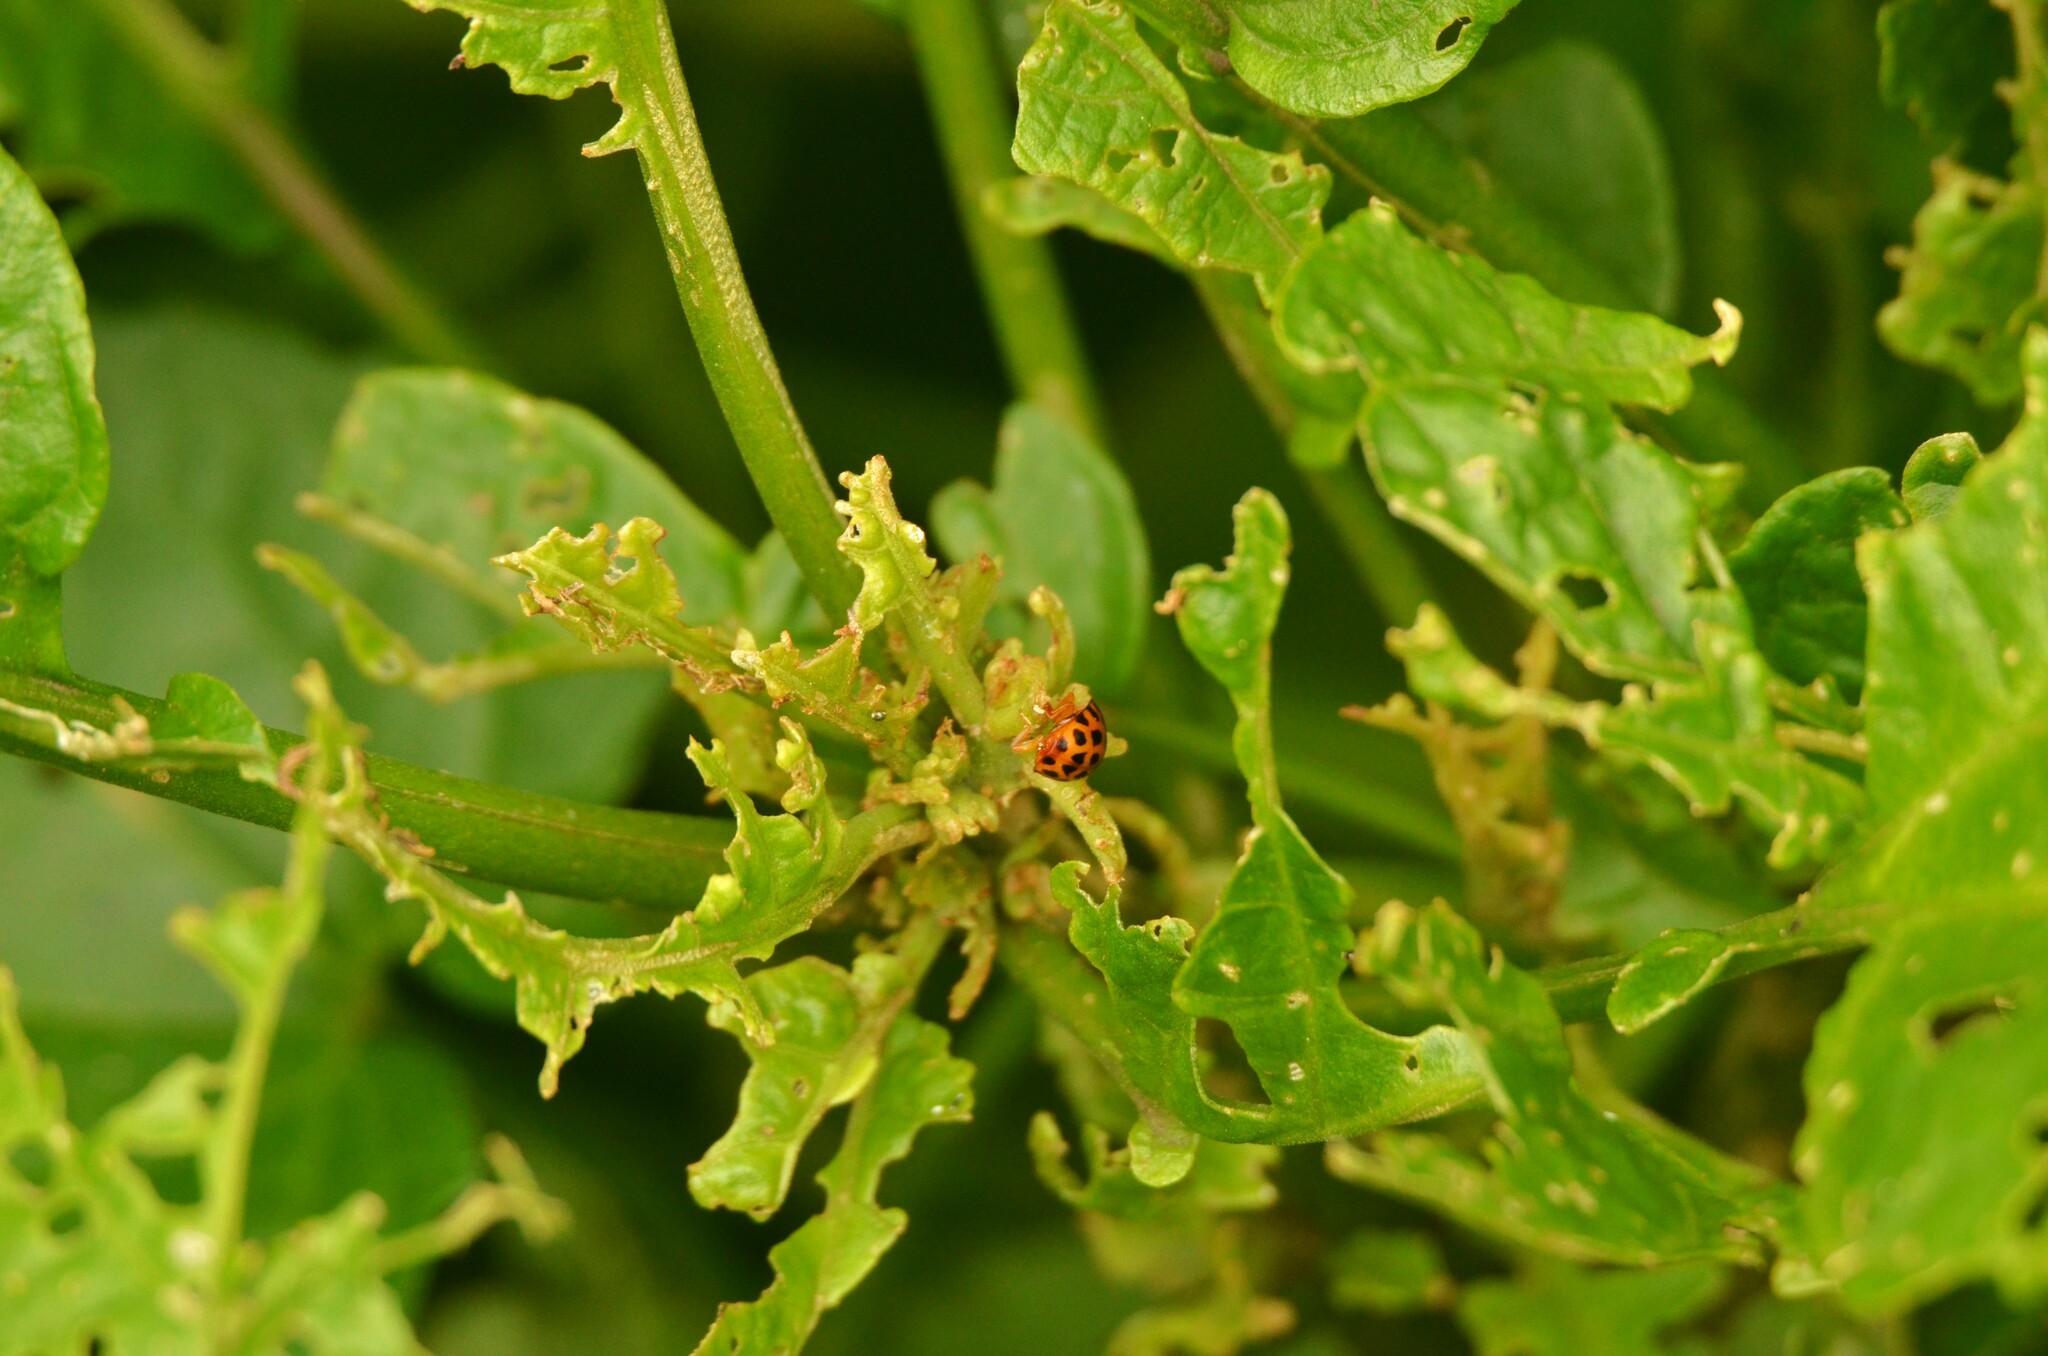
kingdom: Animalia
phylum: Arthropoda
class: Insecta
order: Coleoptera
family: Coccinellidae
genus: Henosepilachna
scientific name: Henosepilachna vigintioctopunctata
